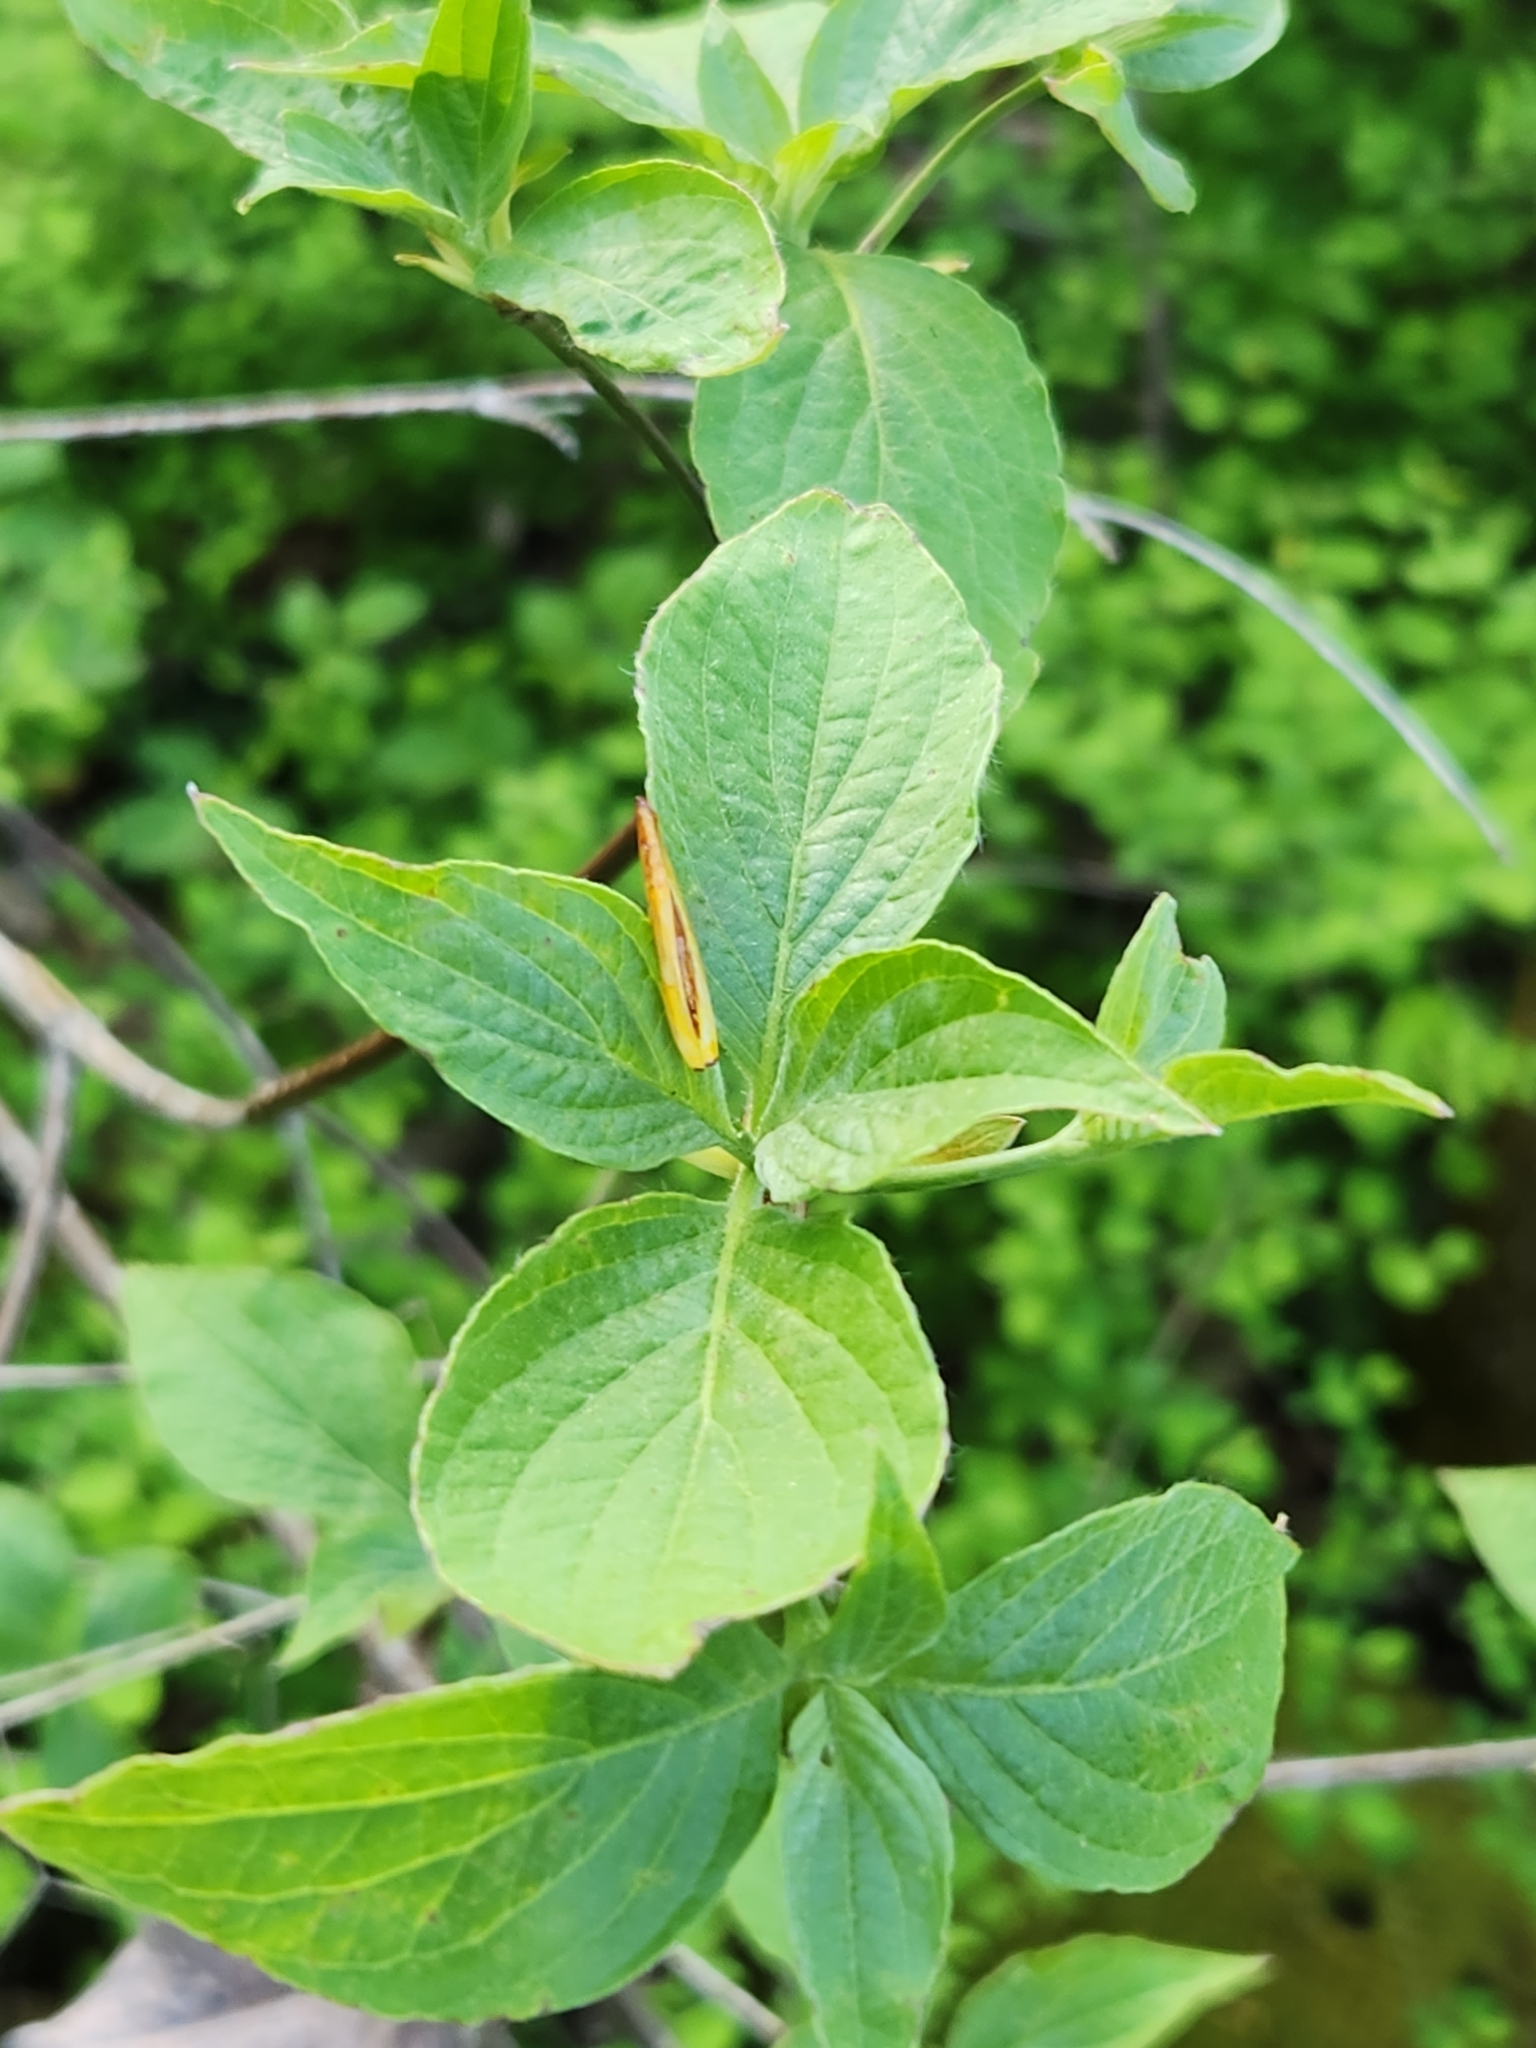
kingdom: Plantae
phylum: Tracheophyta
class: Magnoliopsida
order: Cornales
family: Cornaceae
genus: Cornus
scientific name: Cornus nuttallii
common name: Pacific dogwood
